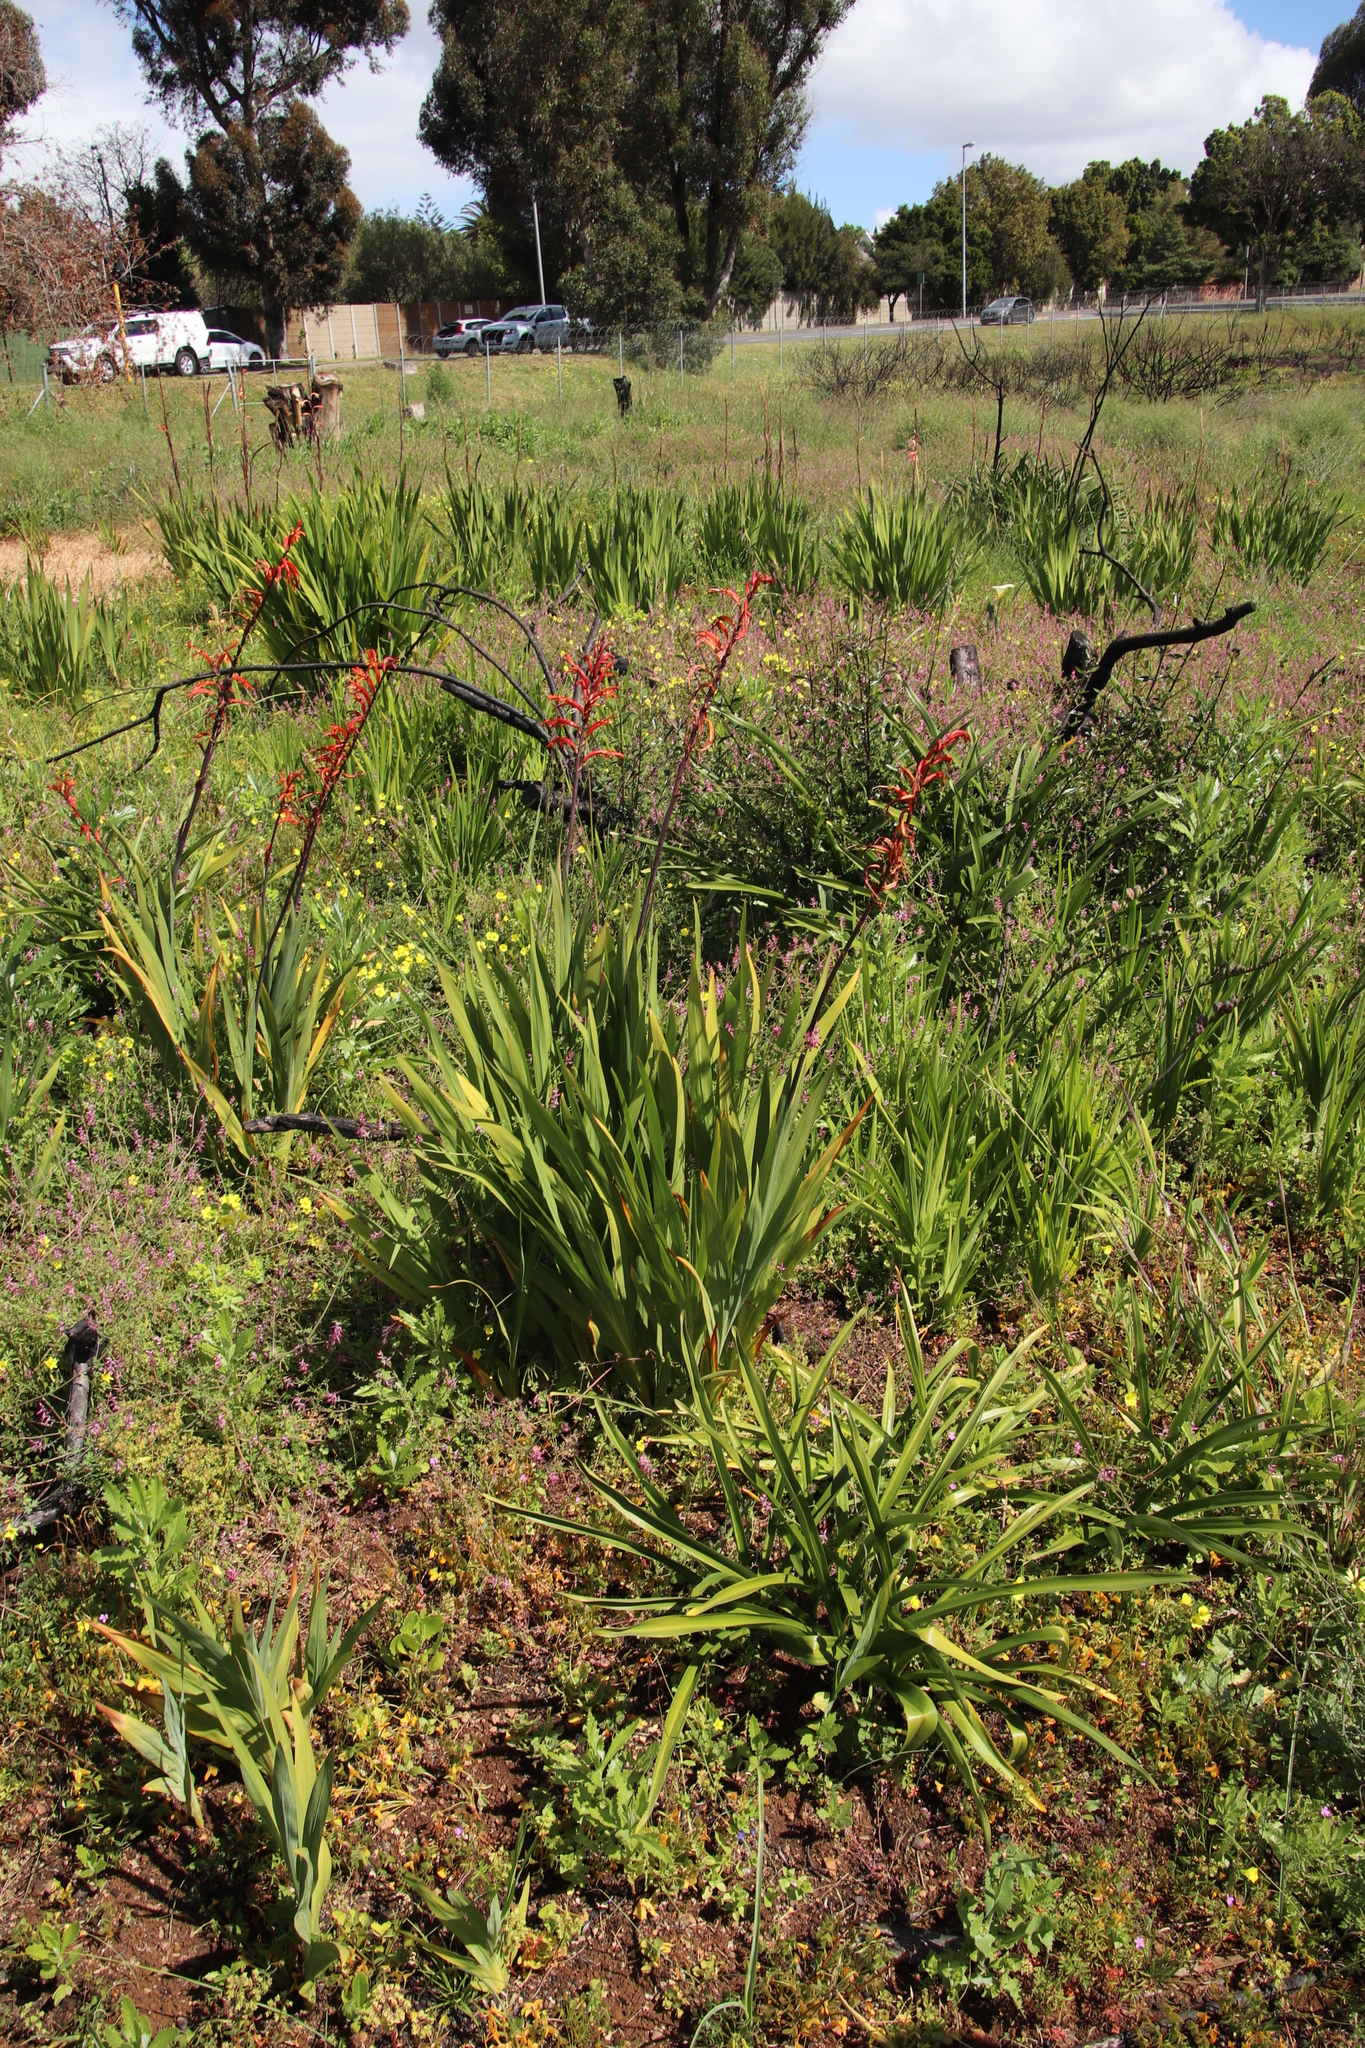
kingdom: Plantae
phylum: Tracheophyta
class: Liliopsida
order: Asparagales
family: Iridaceae
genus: Chasmanthe
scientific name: Chasmanthe floribunda
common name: African cornflag
